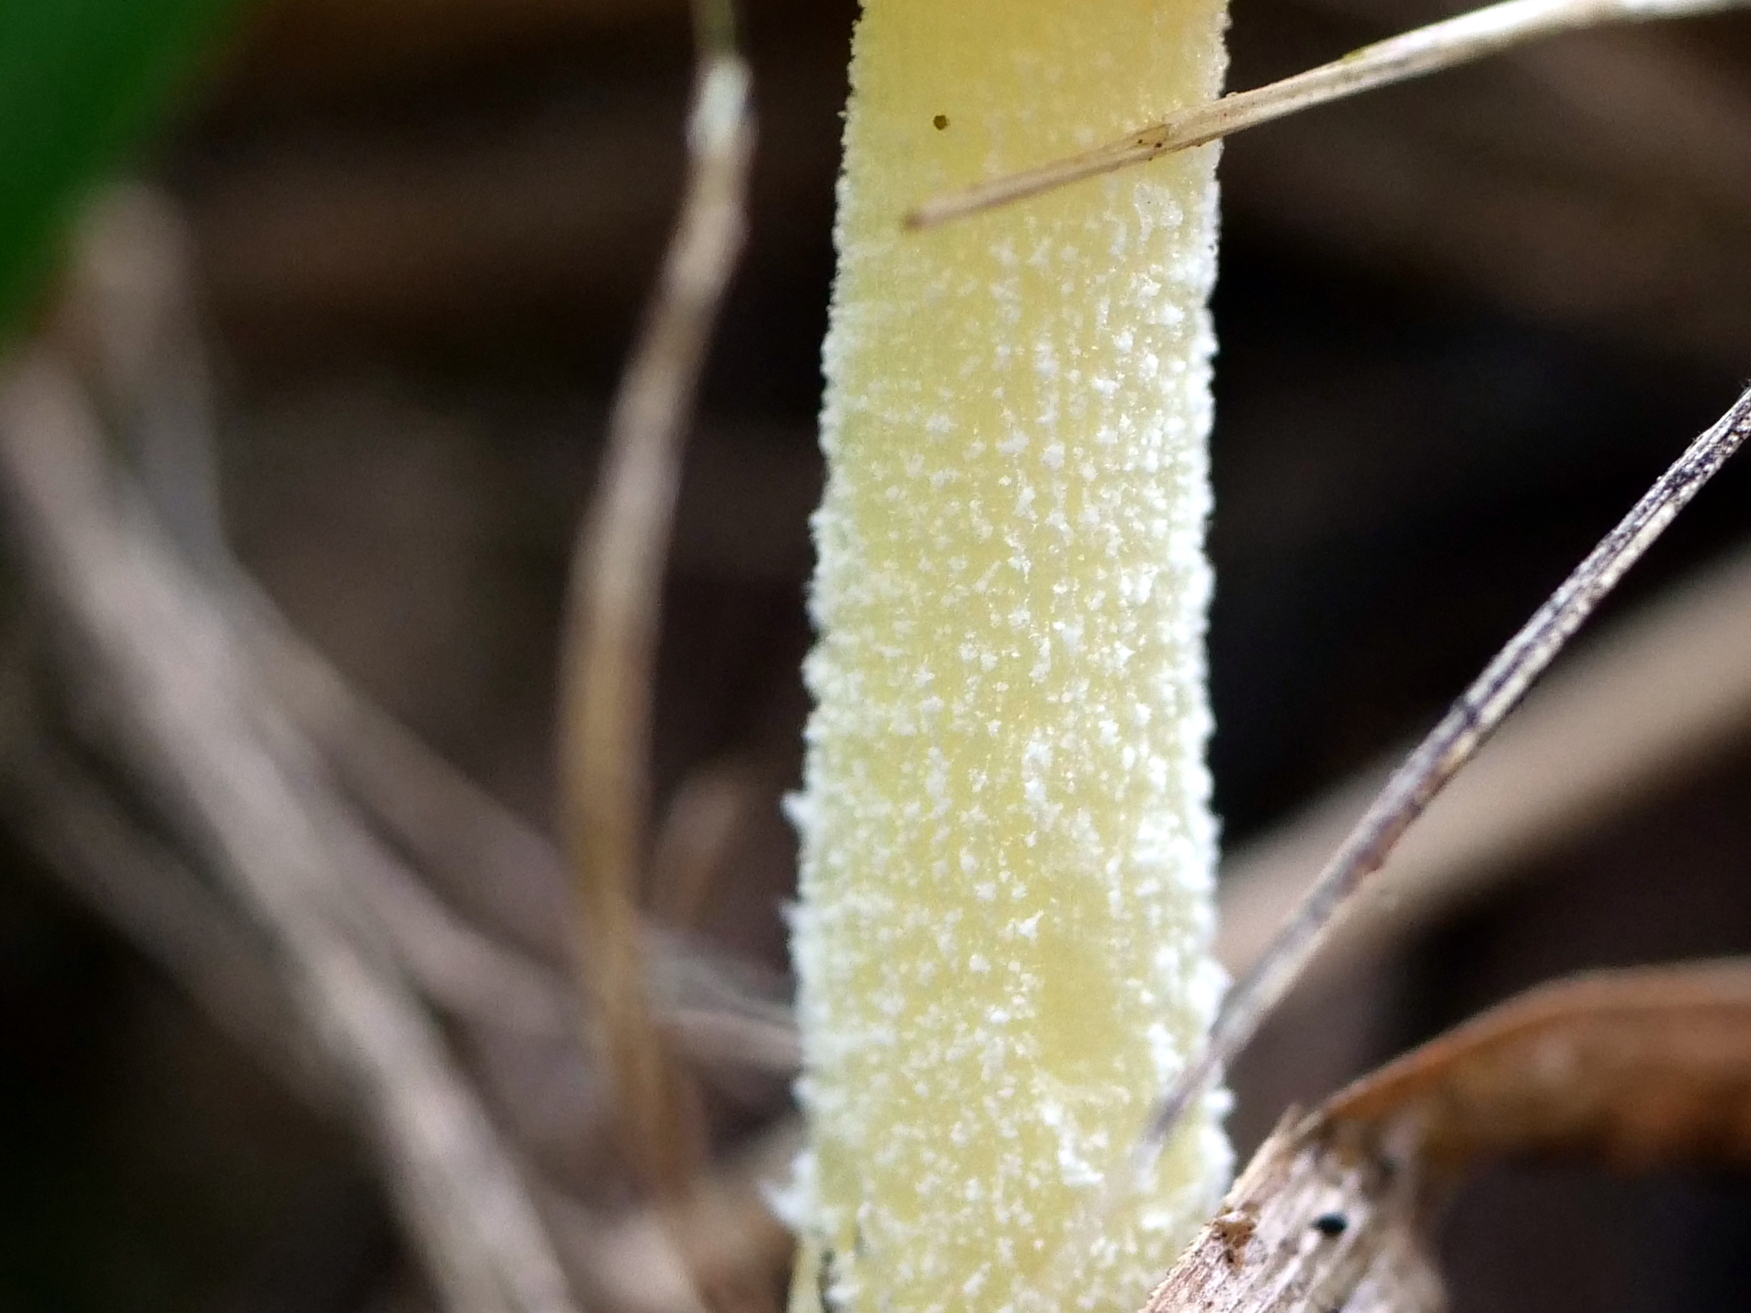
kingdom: Fungi
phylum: Basidiomycota
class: Agaricomycetes
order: Agaricales
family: Bolbitiaceae
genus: Bolbitius
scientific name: Bolbitius titubans
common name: Yellow fieldcap
